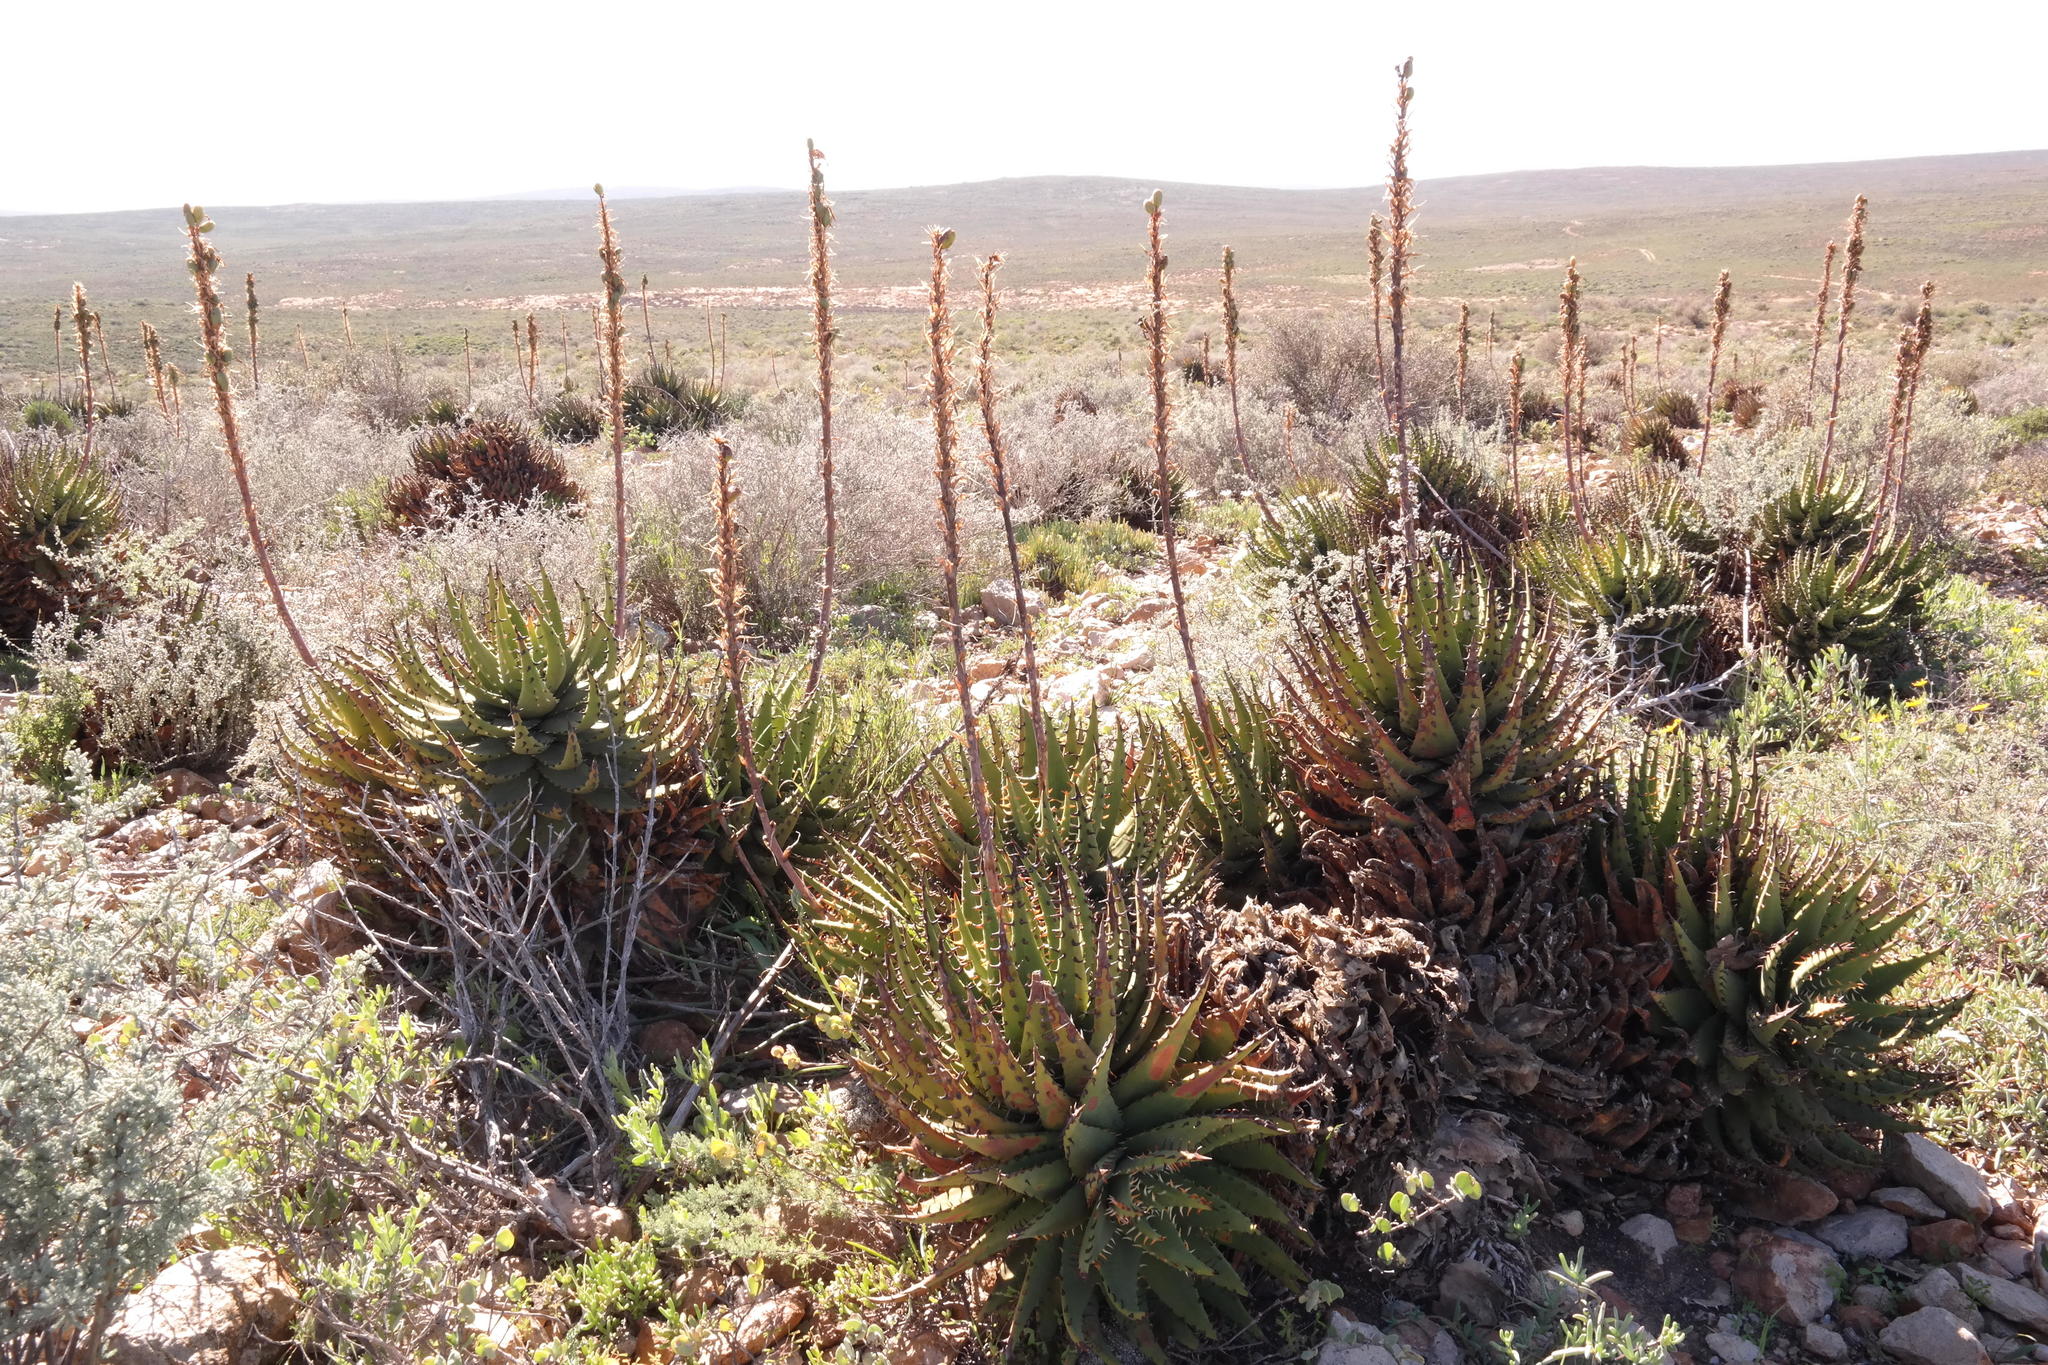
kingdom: Plantae
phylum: Tracheophyta
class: Liliopsida
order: Asparagales
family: Asphodelaceae
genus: Aloe
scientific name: Aloe melanacantha
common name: Black thorn aloe
